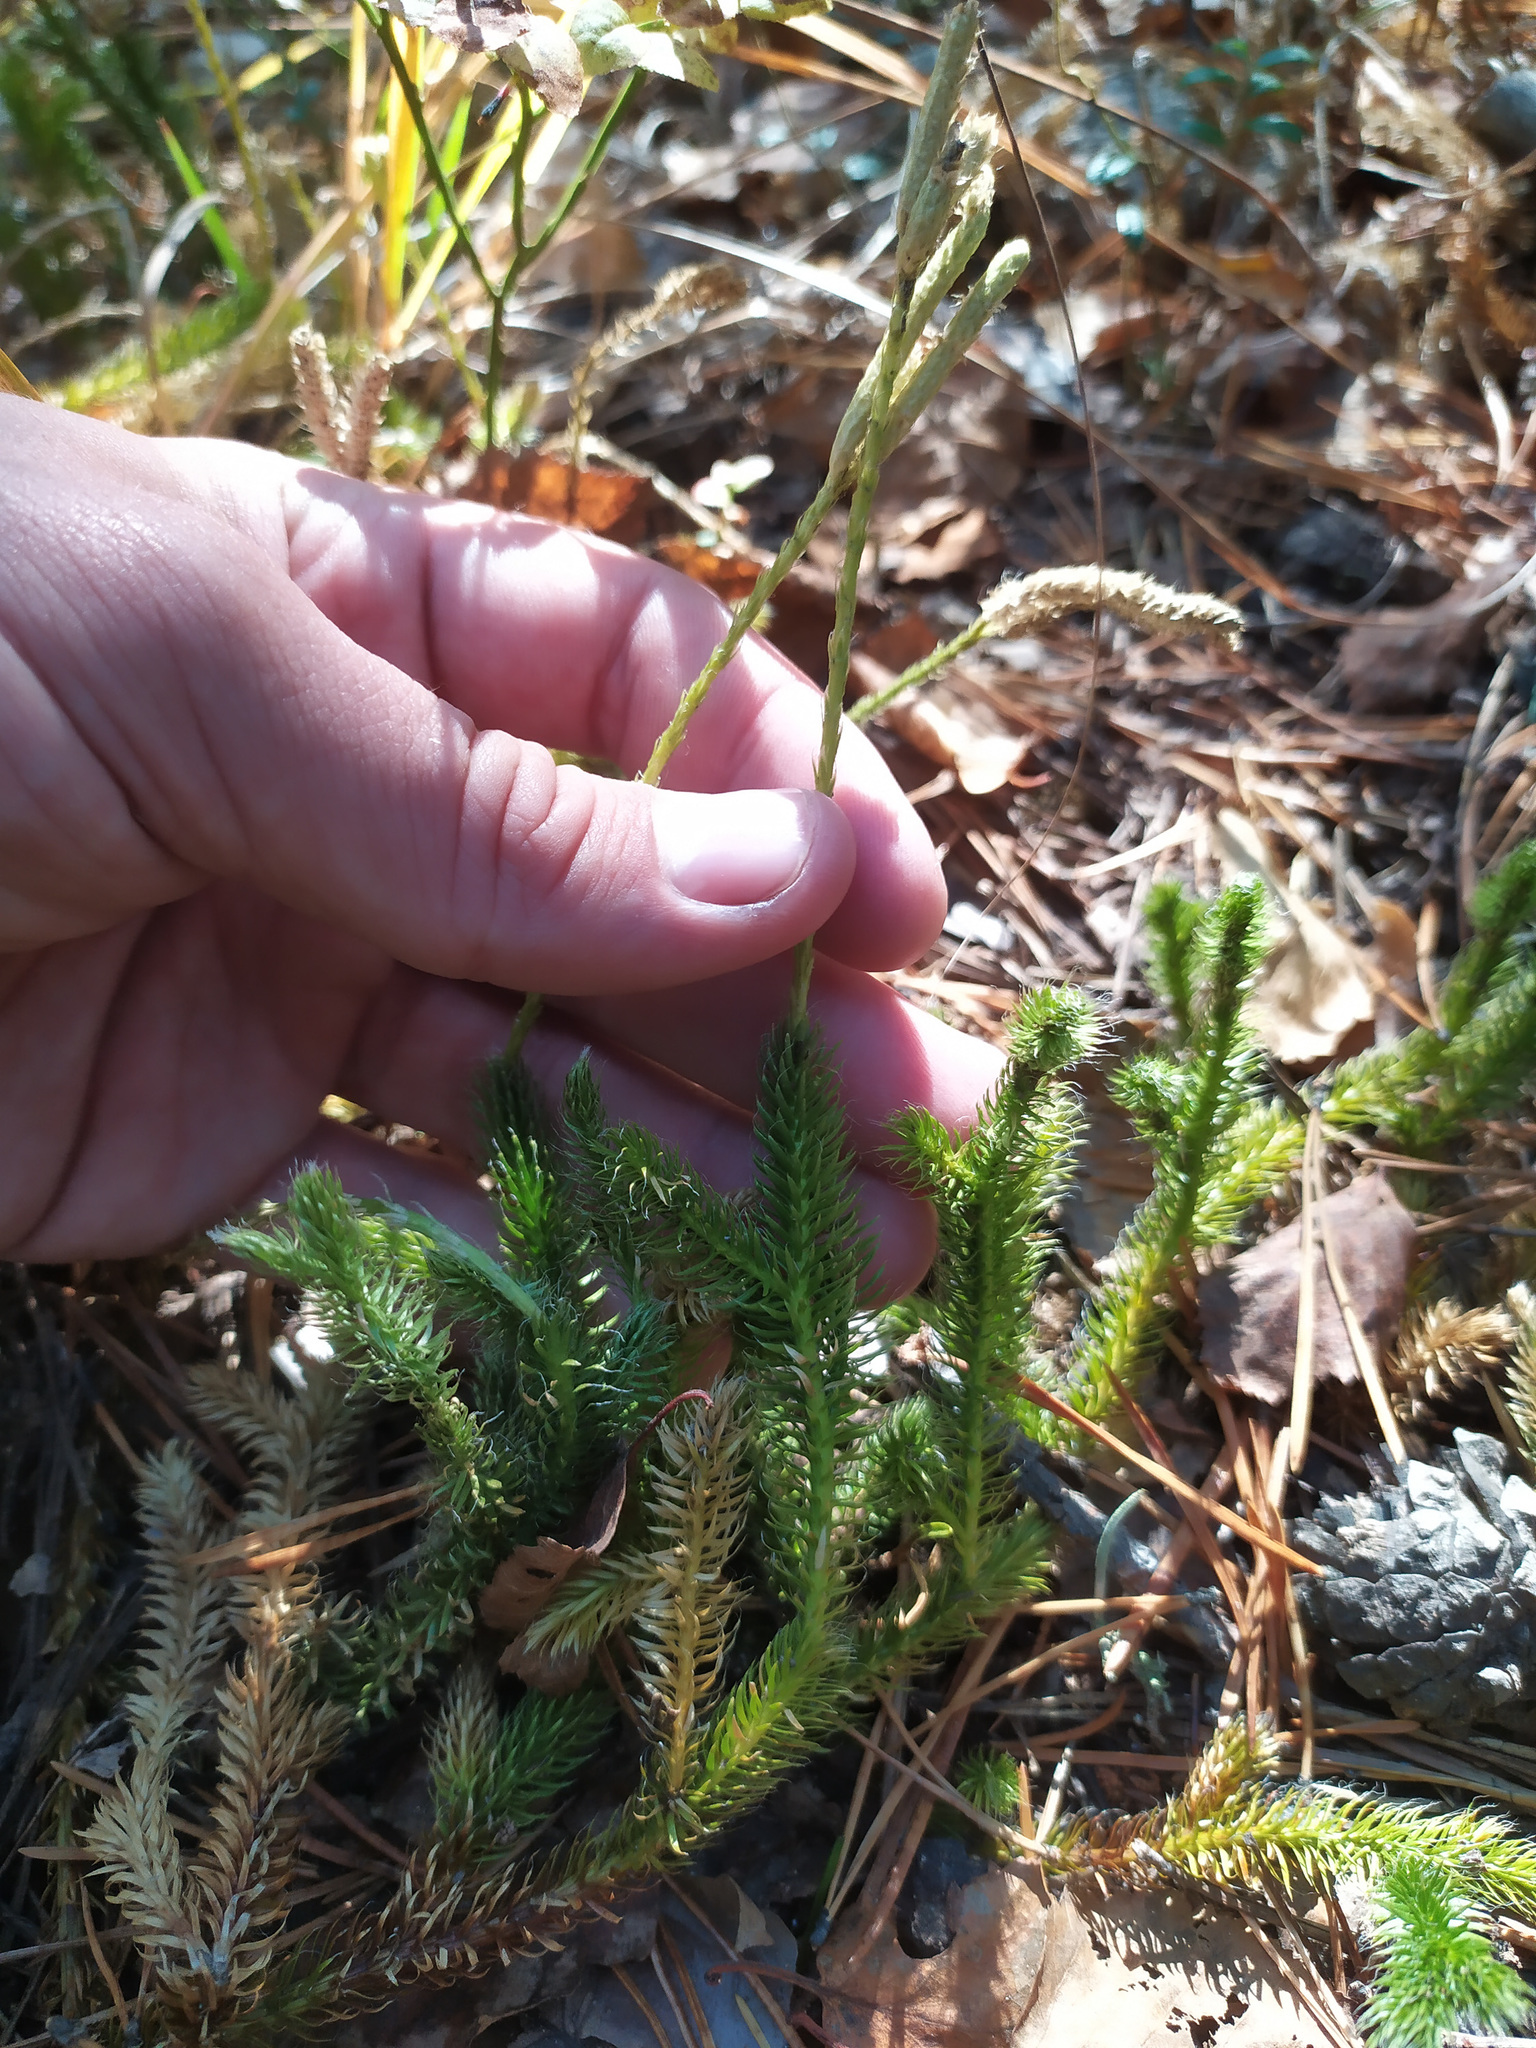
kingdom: Plantae
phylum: Tracheophyta
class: Lycopodiopsida
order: Lycopodiales
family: Lycopodiaceae
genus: Lycopodium
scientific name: Lycopodium clavatum
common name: Stag's-horn clubmoss
